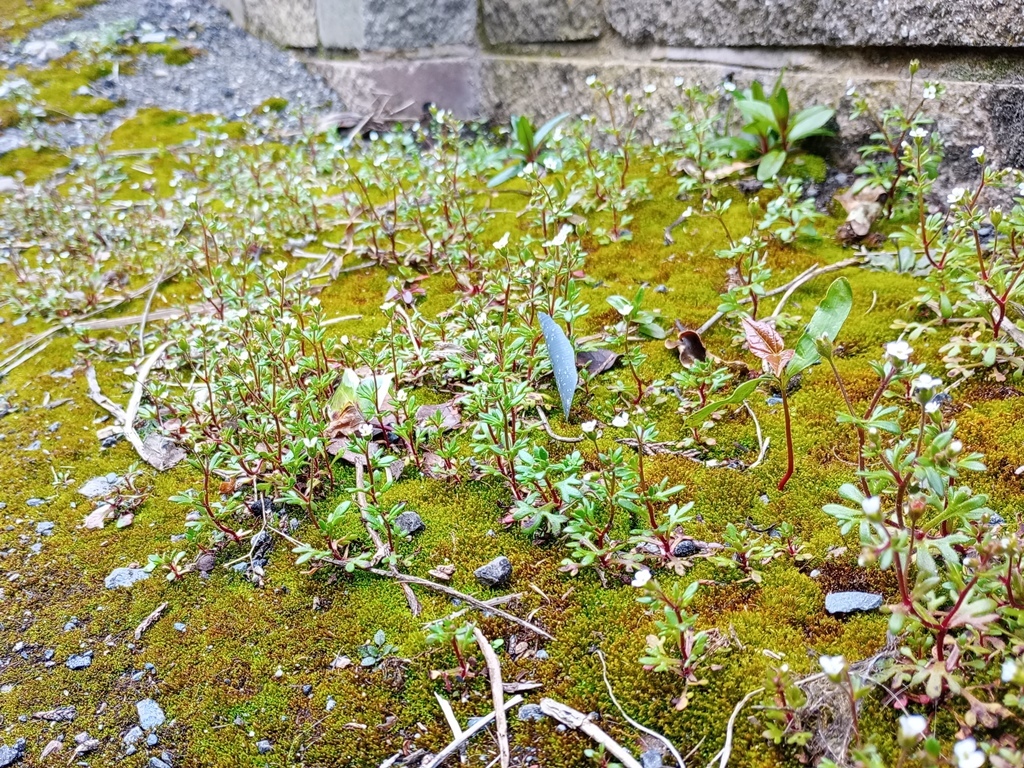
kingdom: Plantae
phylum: Tracheophyta
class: Magnoliopsida
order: Saxifragales
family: Saxifragaceae
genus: Saxifraga
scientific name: Saxifraga tridactylites
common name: Rue-leaved saxifrage
